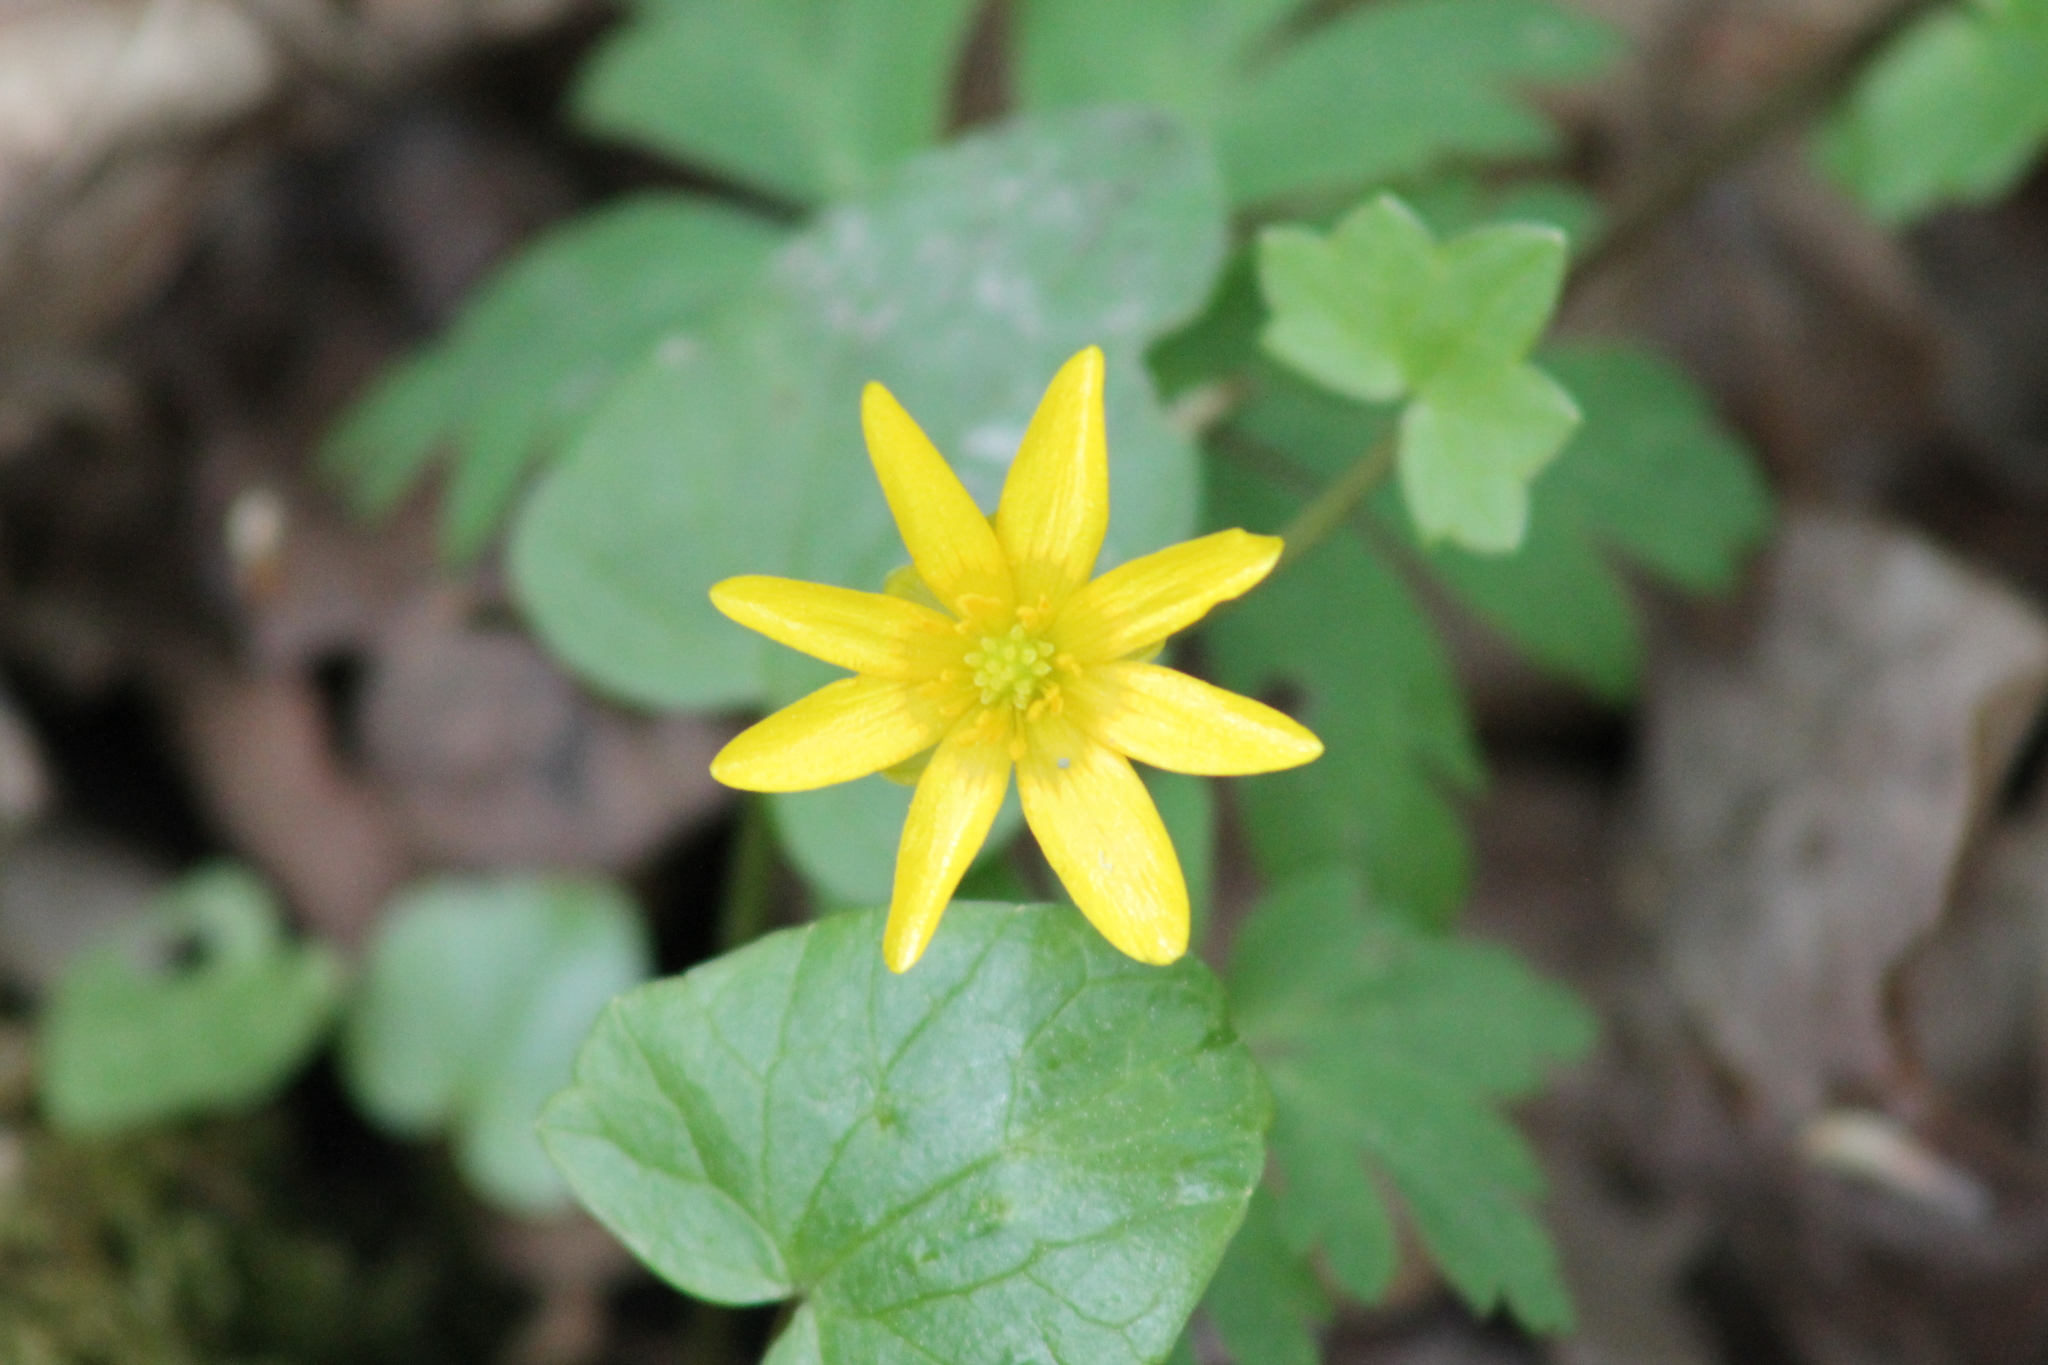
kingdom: Plantae
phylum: Tracheophyta
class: Magnoliopsida
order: Ranunculales
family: Ranunculaceae
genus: Ficaria
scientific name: Ficaria verna
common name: Lesser celandine
